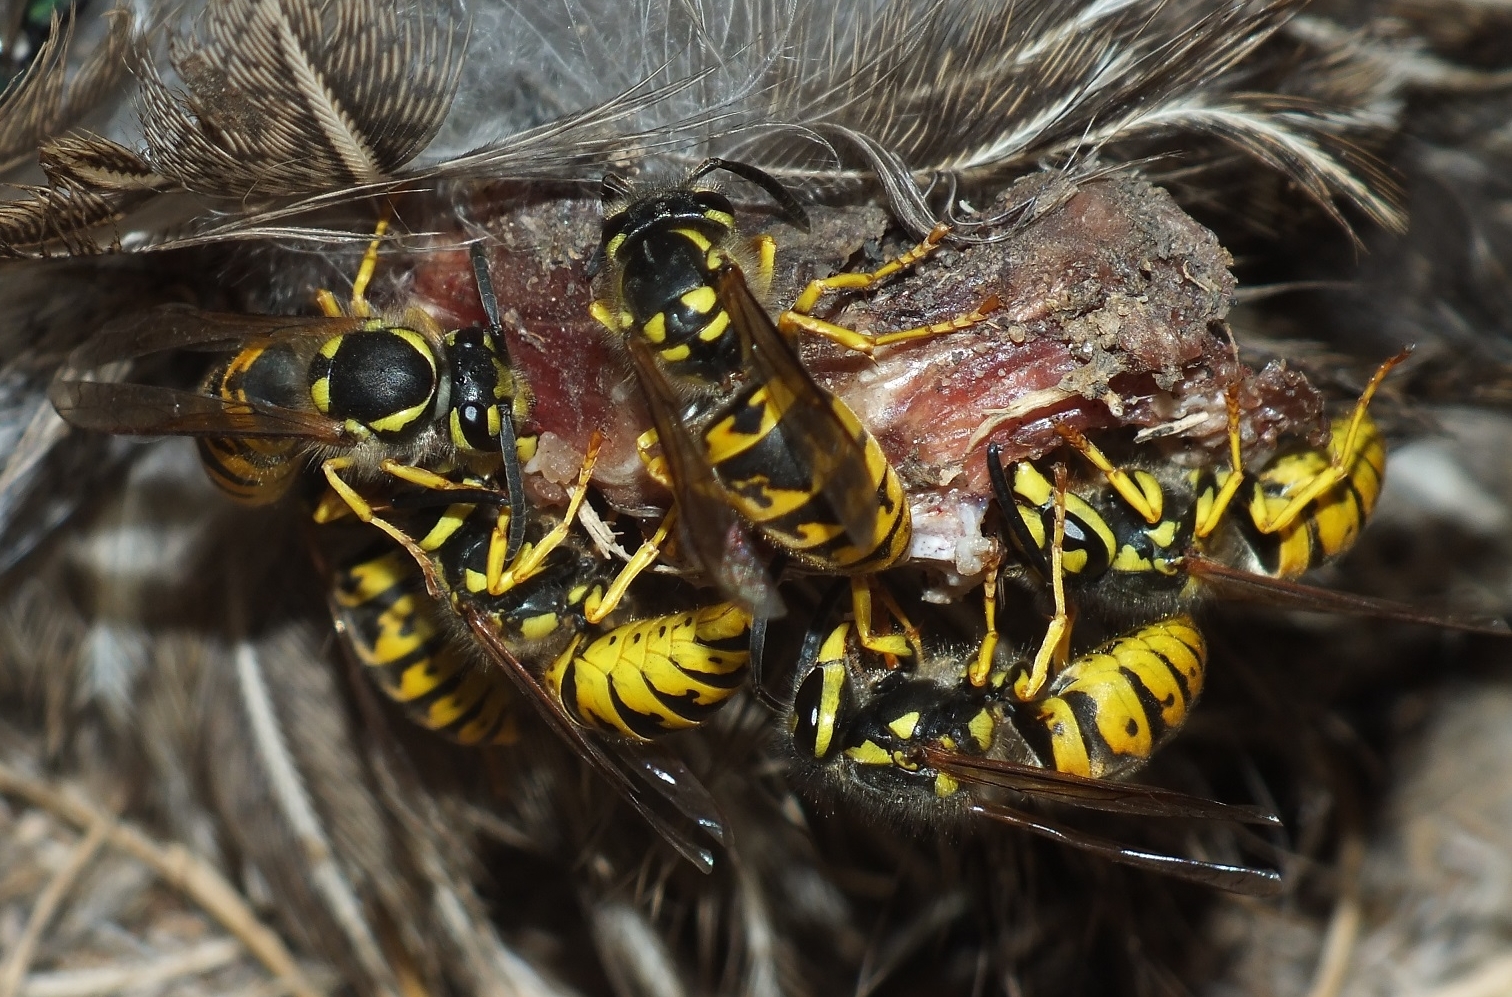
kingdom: Animalia
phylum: Arthropoda
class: Insecta
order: Hymenoptera
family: Vespidae
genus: Vespula
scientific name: Vespula germanica
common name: German wasp
